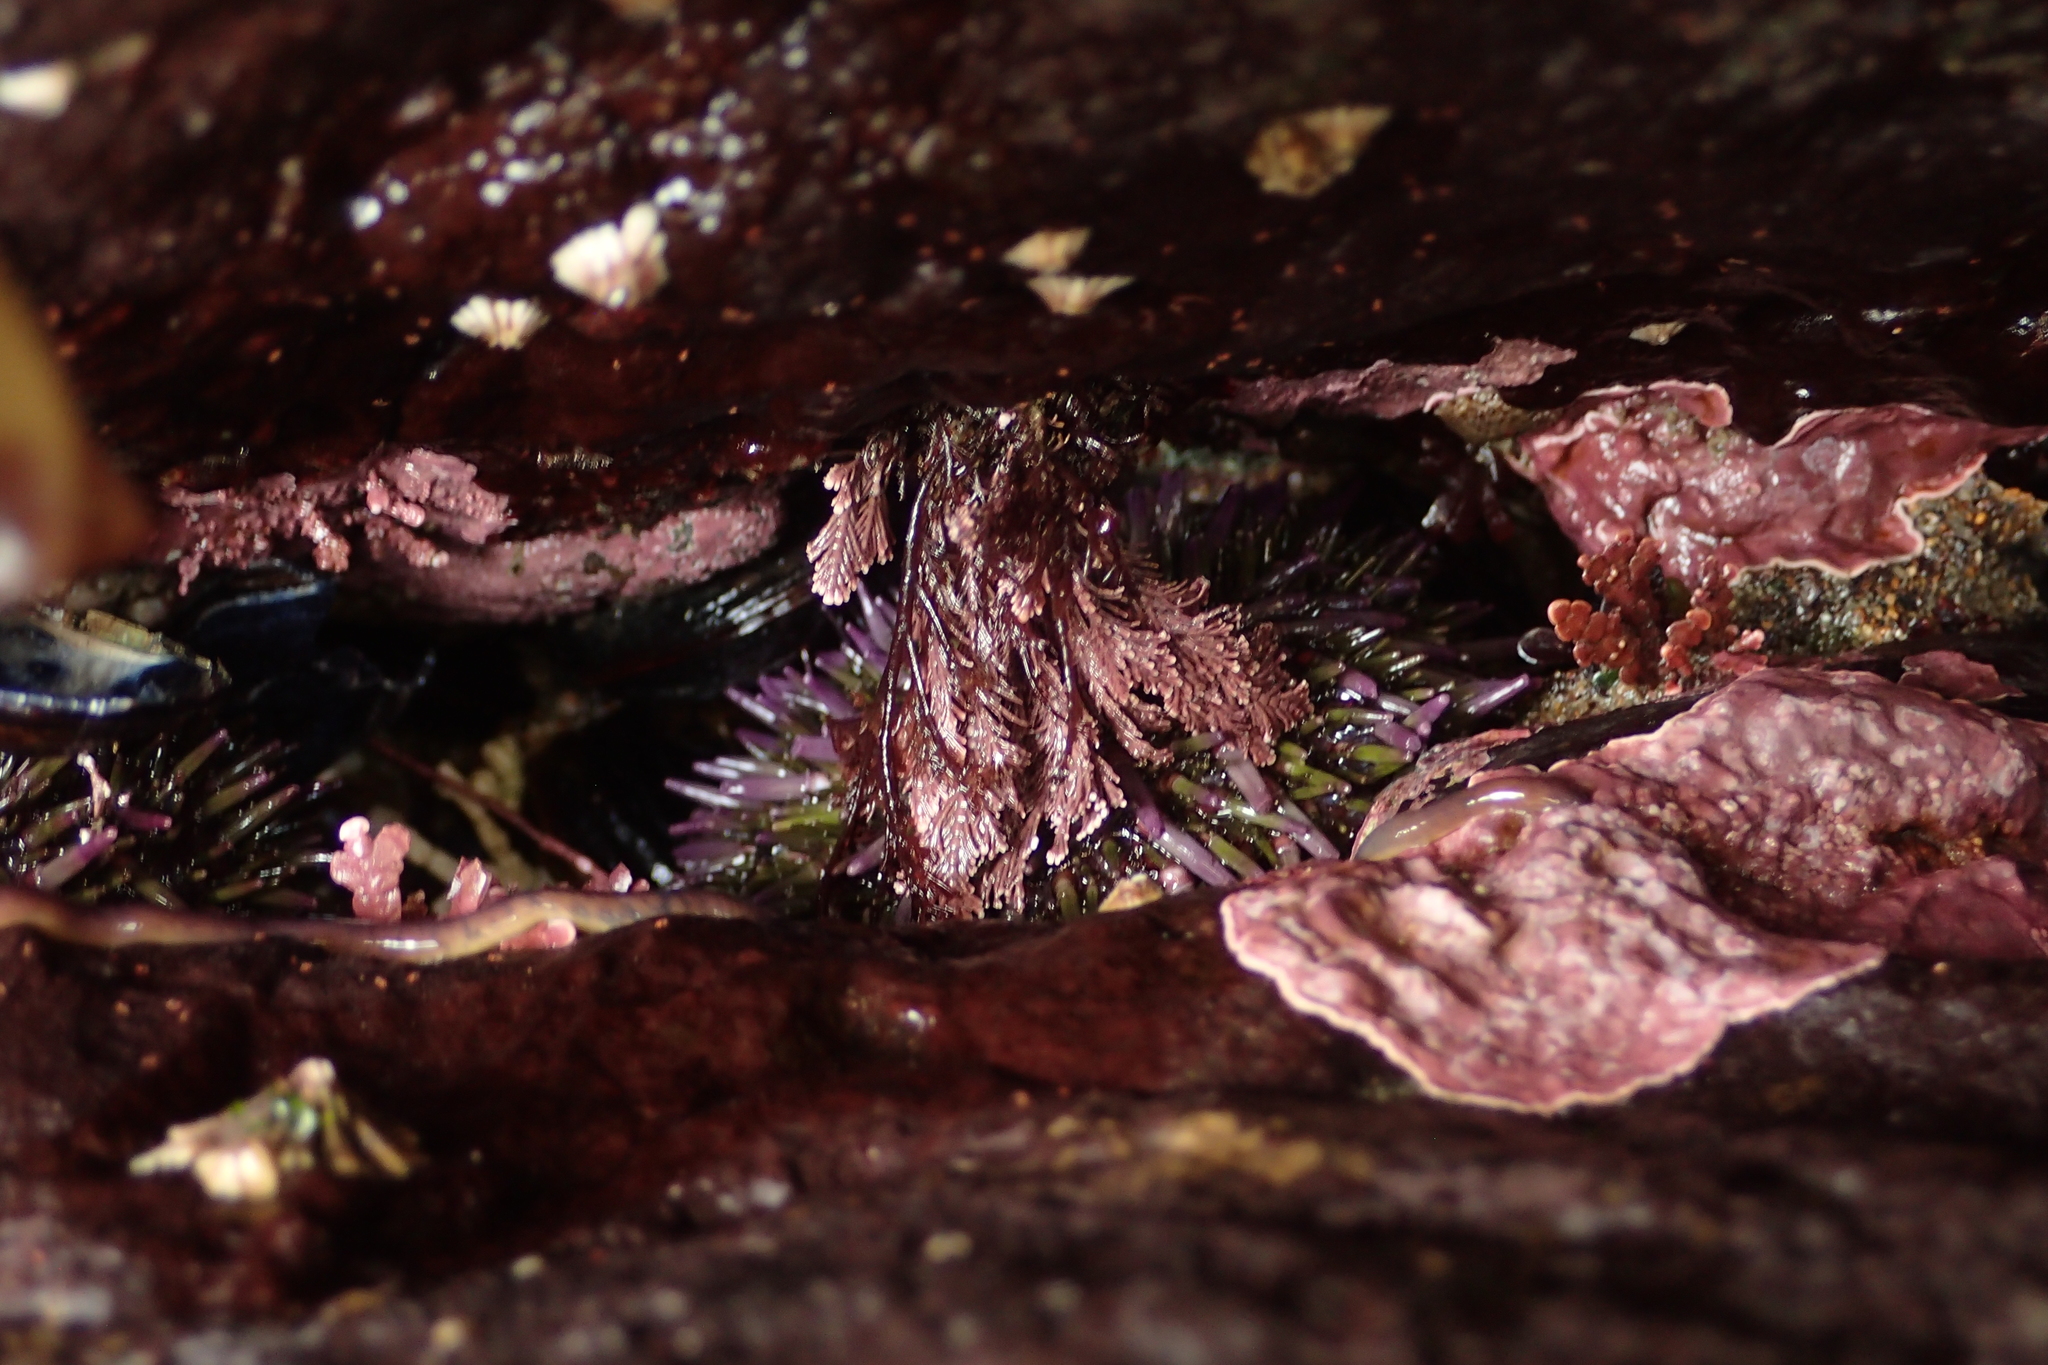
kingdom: Animalia
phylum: Echinodermata
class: Echinoidea
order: Camarodonta
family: Strongylocentrotidae
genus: Strongylocentrotus
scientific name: Strongylocentrotus purpuratus
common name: Purple sea urchin
